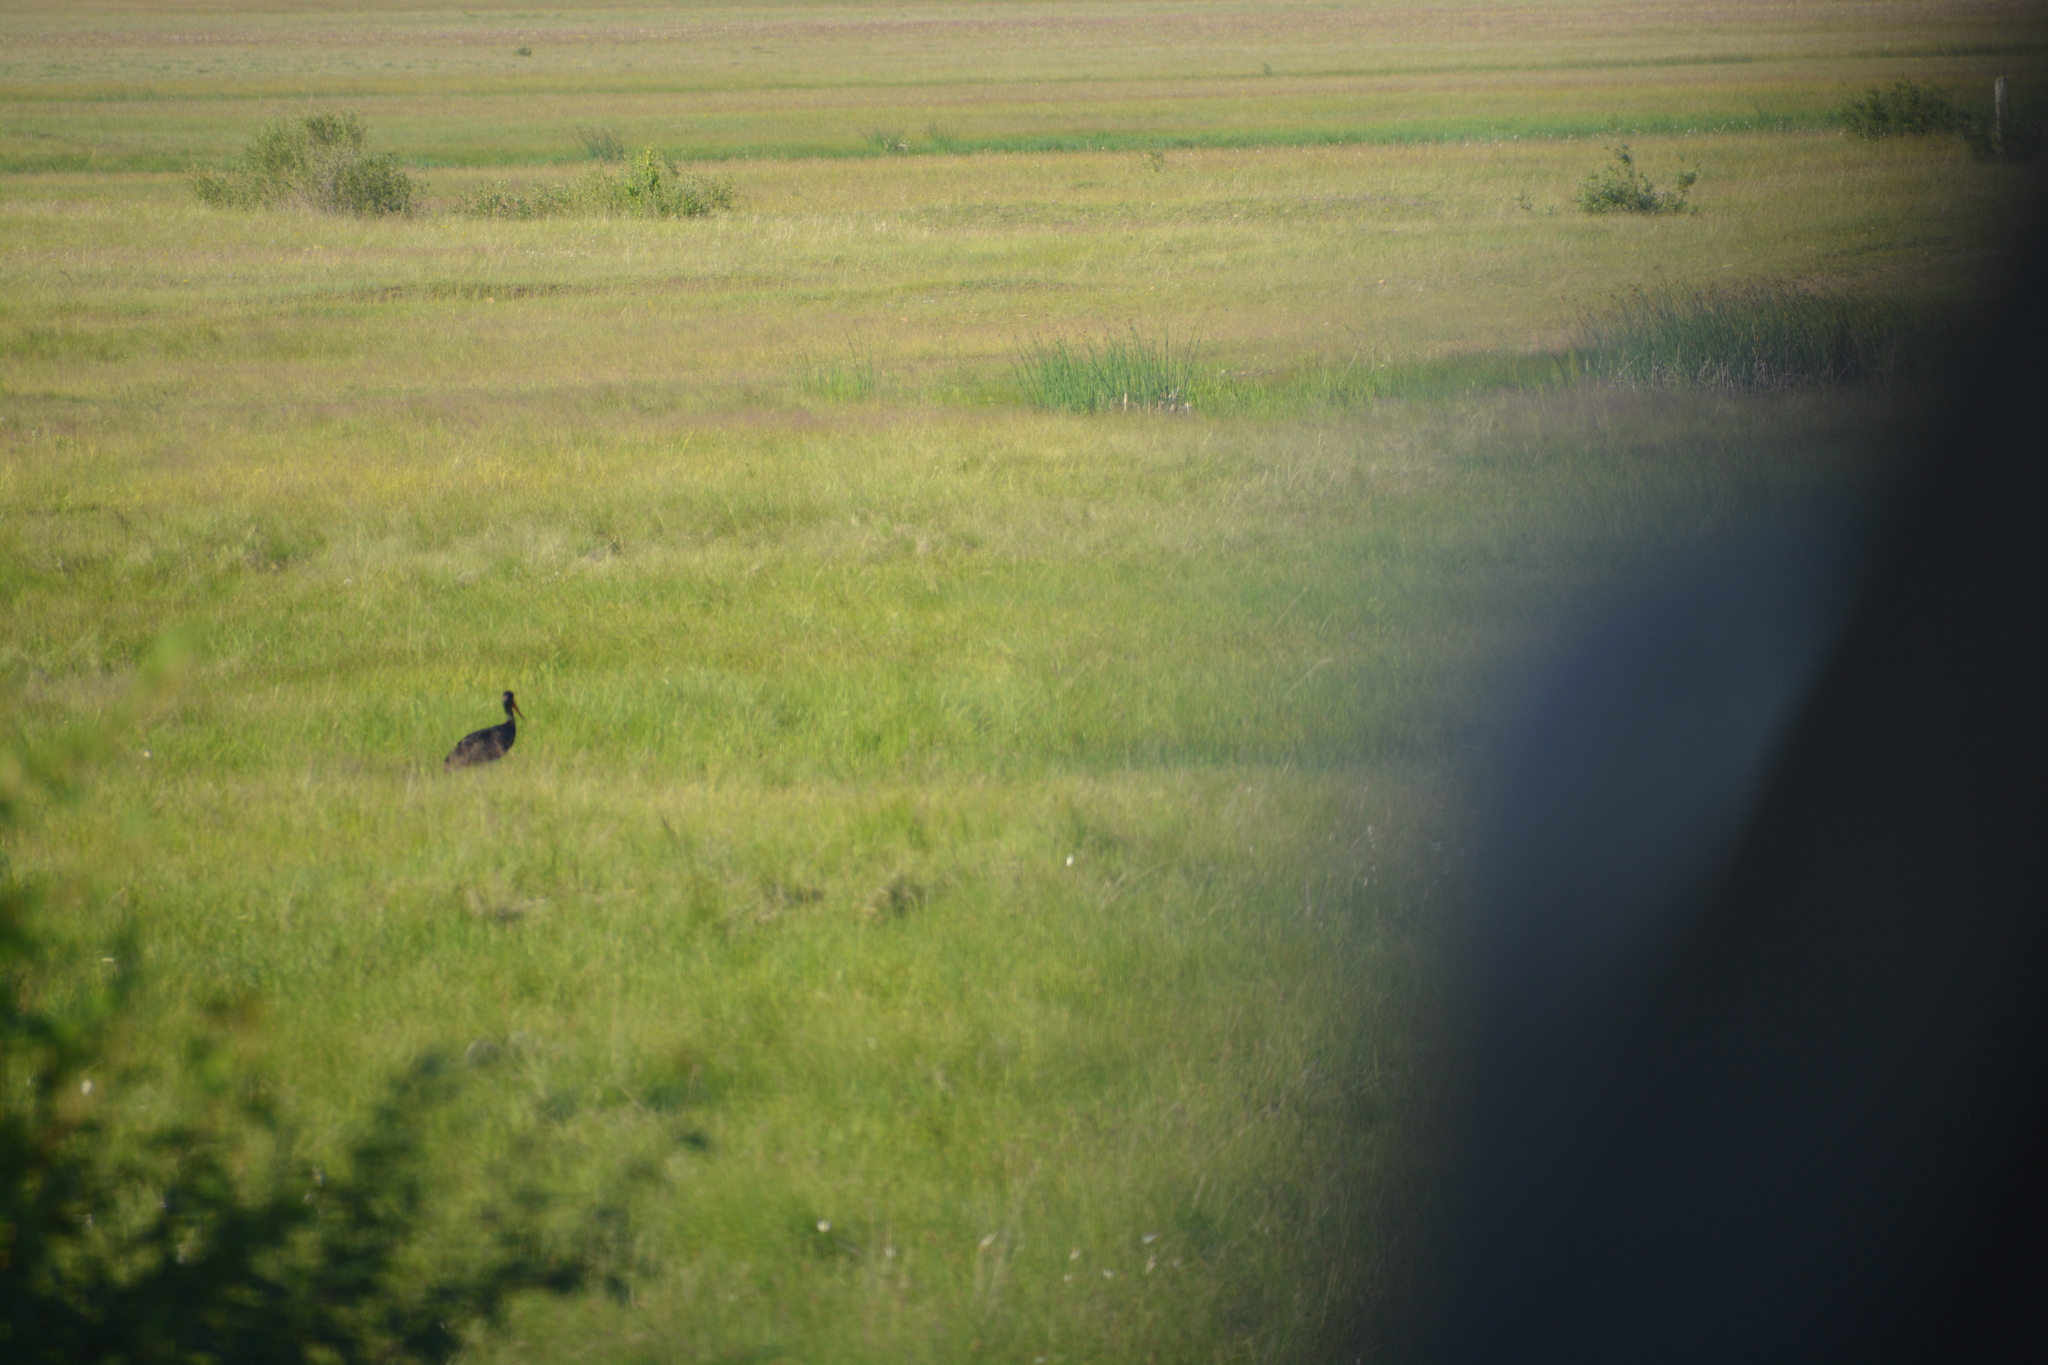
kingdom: Animalia
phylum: Chordata
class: Aves
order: Ciconiiformes
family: Ciconiidae
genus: Ciconia
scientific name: Ciconia nigra
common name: Black stork
